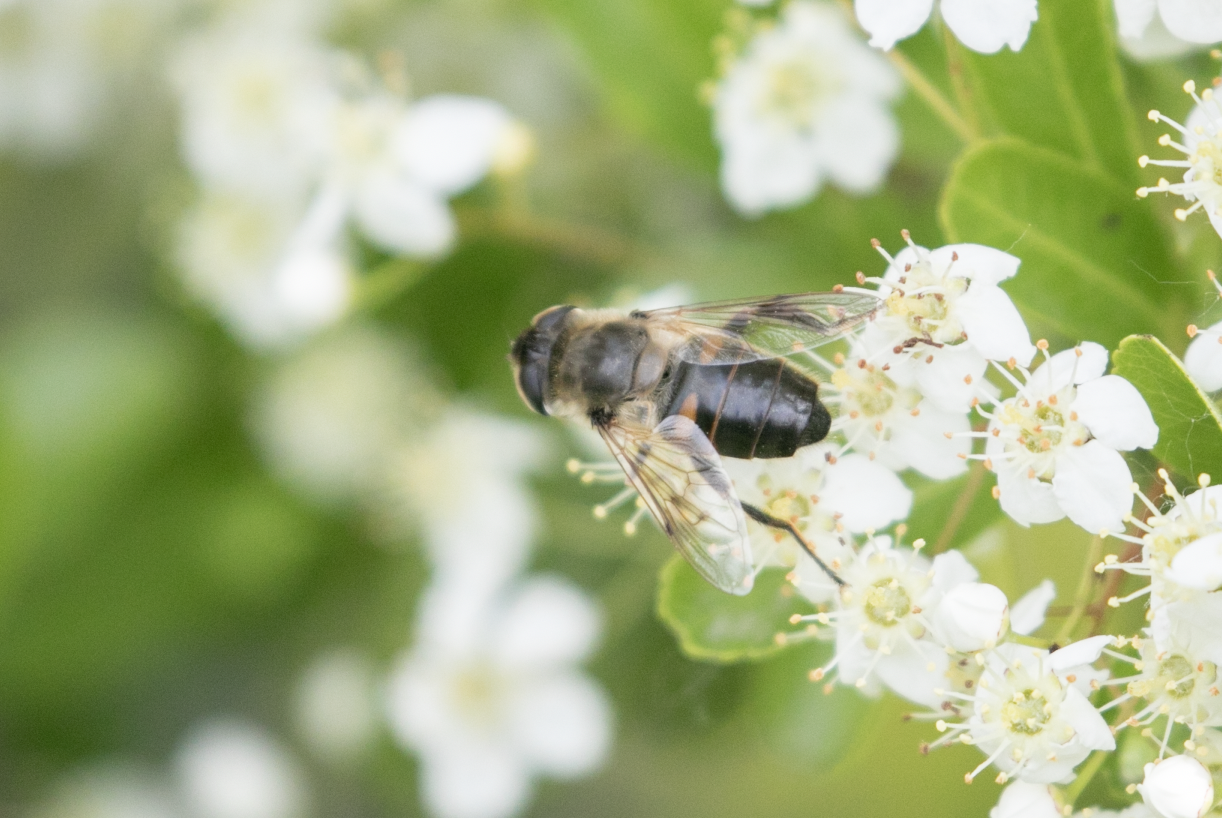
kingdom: Animalia
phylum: Arthropoda
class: Insecta
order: Diptera
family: Syrphidae
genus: Eristalis
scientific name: Eristalis tenax
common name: Drone fly
